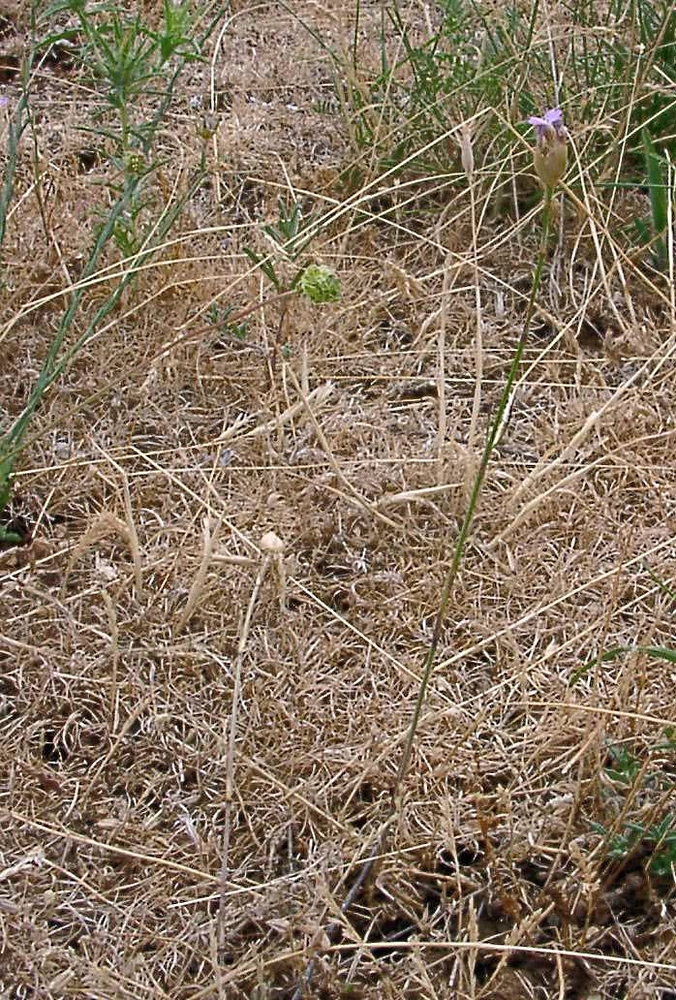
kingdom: Plantae
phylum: Tracheophyta
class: Magnoliopsida
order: Caryophyllales
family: Caryophyllaceae
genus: Petrorhagia
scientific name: Petrorhagia prolifera
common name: Proliferous pink
